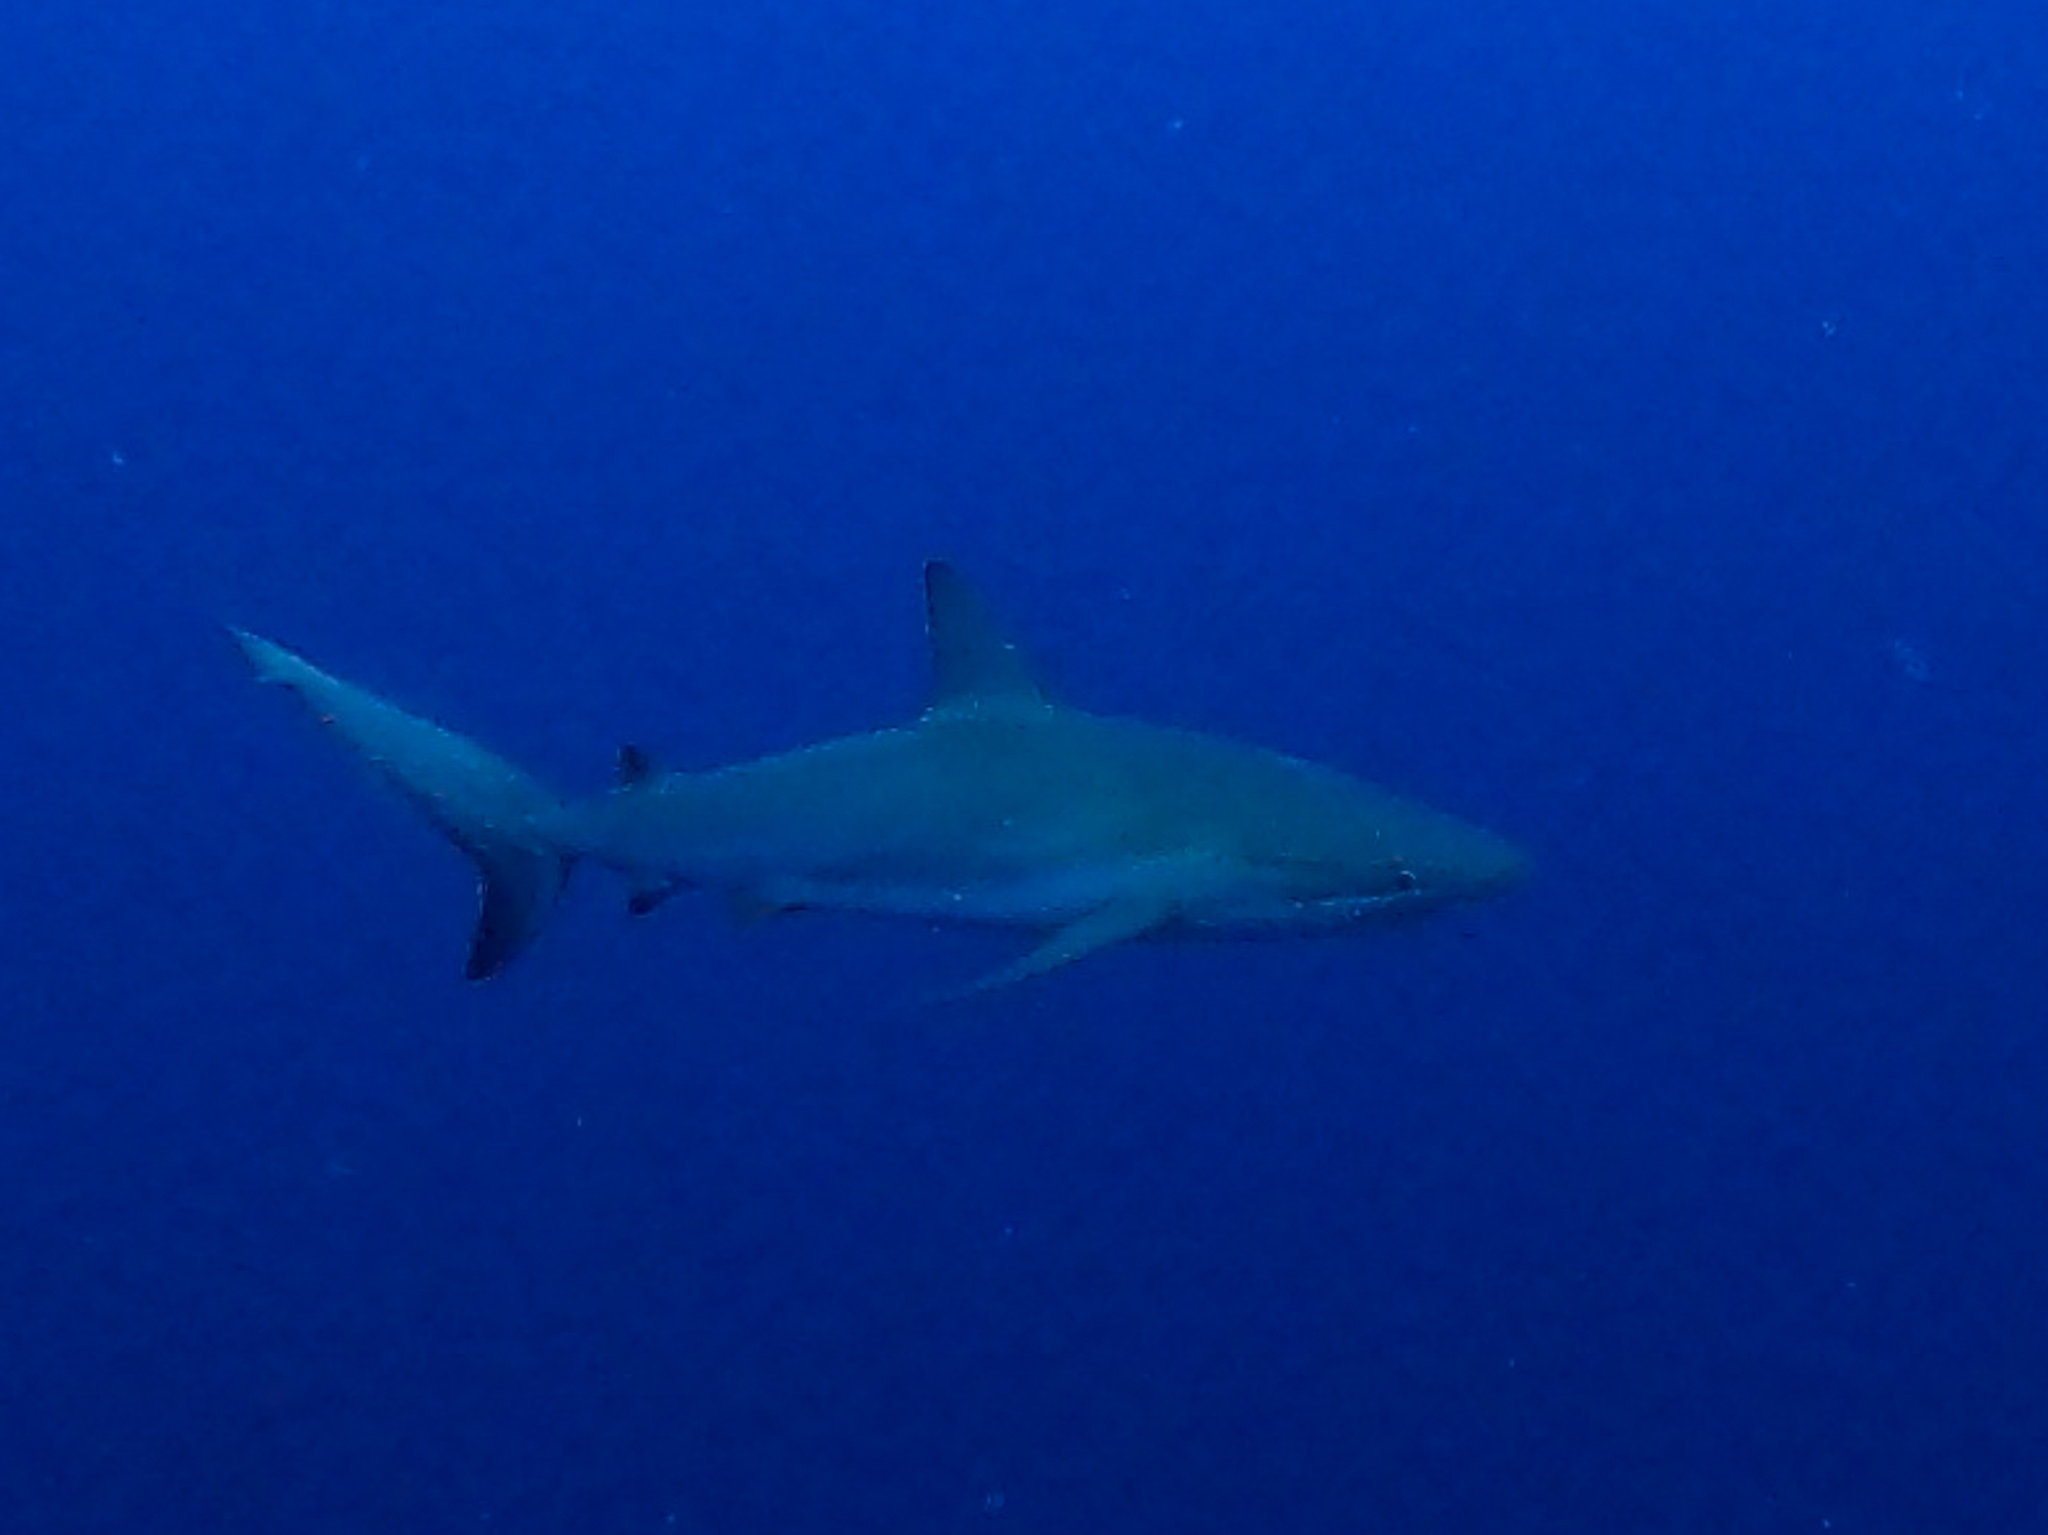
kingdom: Animalia
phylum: Chordata
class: Elasmobranchii
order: Carcharhiniformes
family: Carcharhinidae
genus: Carcharhinus
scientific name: Carcharhinus perezii
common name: Reef shark
